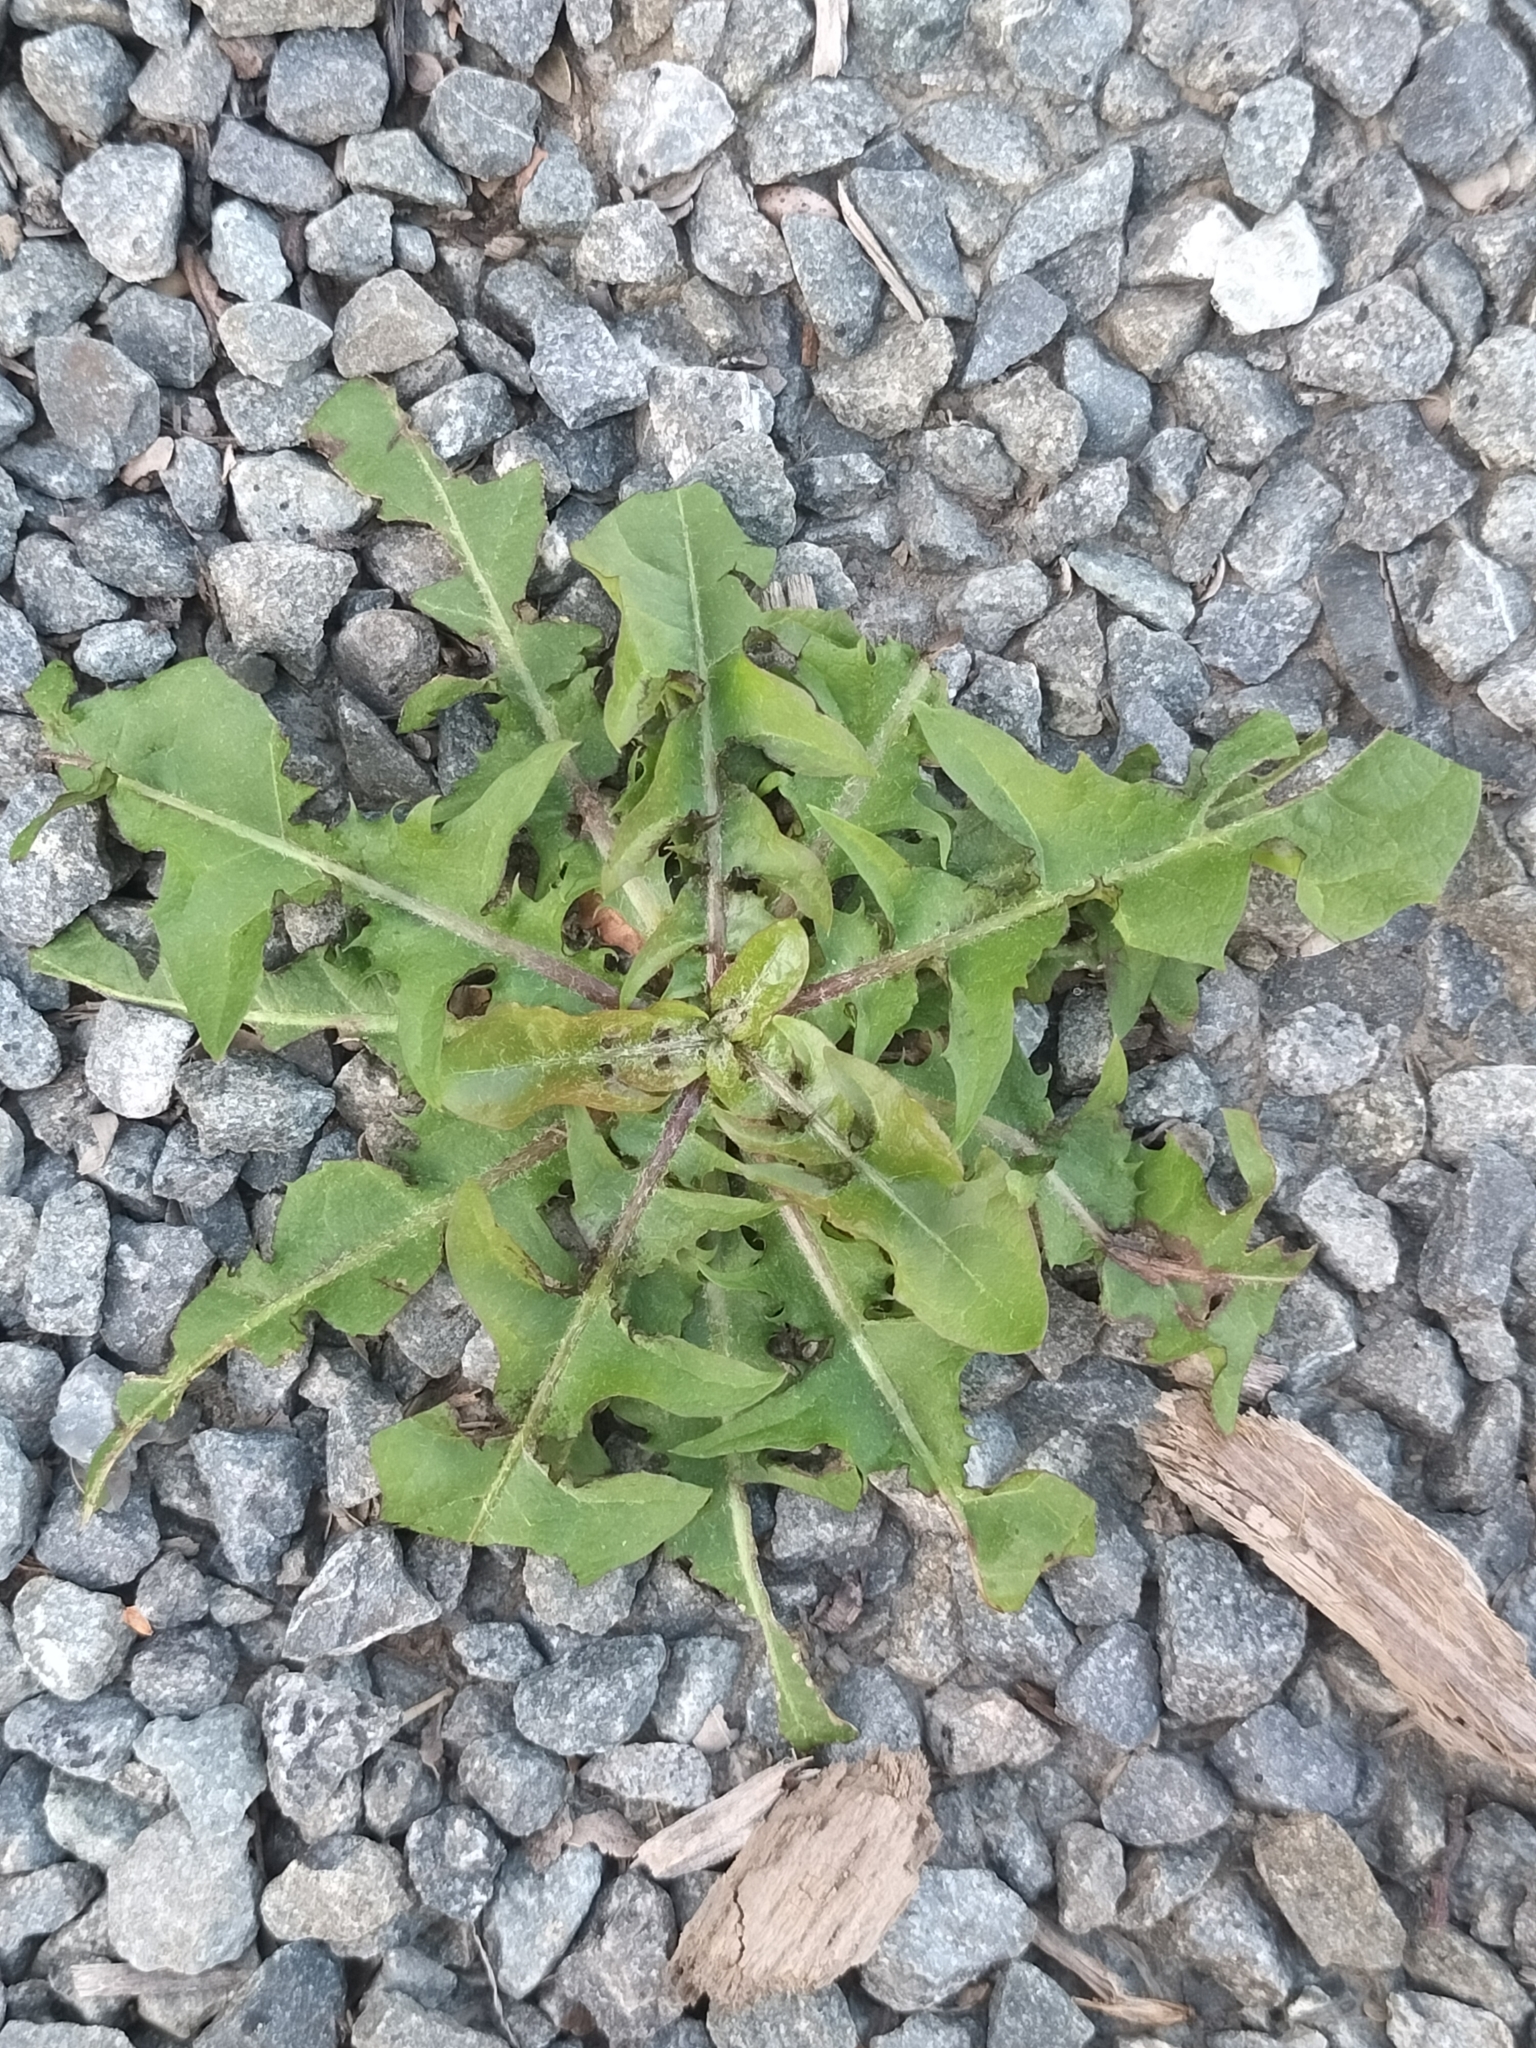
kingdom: Plantae
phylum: Tracheophyta
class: Magnoliopsida
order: Asterales
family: Asteraceae
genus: Taraxacum
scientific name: Taraxacum officinale
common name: Common dandelion
